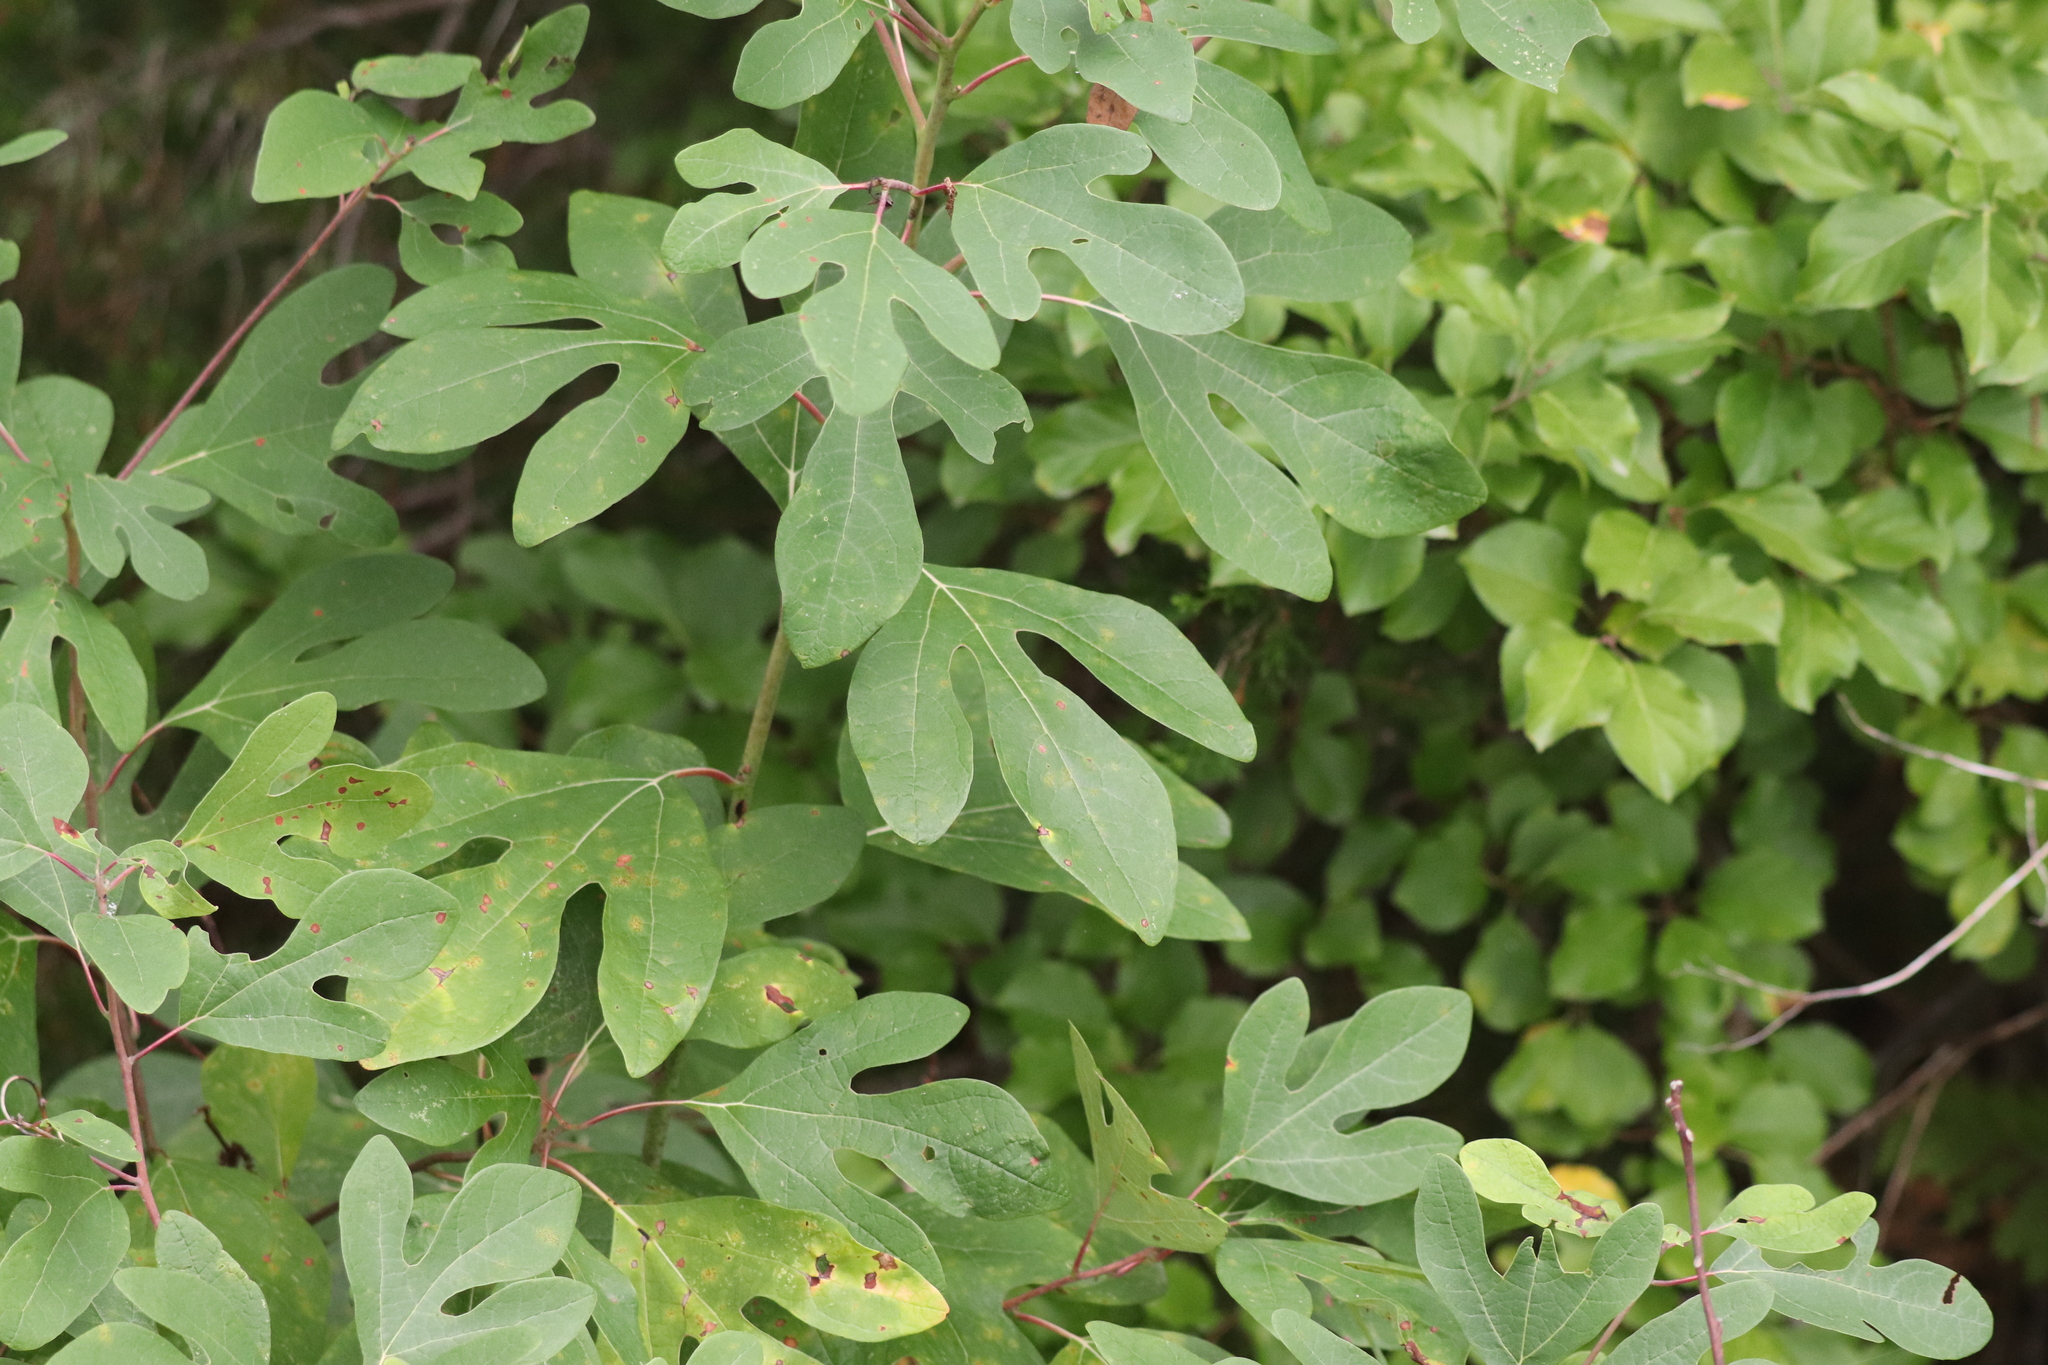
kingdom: Plantae
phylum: Tracheophyta
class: Magnoliopsida
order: Laurales
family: Lauraceae
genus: Sassafras
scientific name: Sassafras albidum
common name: Sassafras
